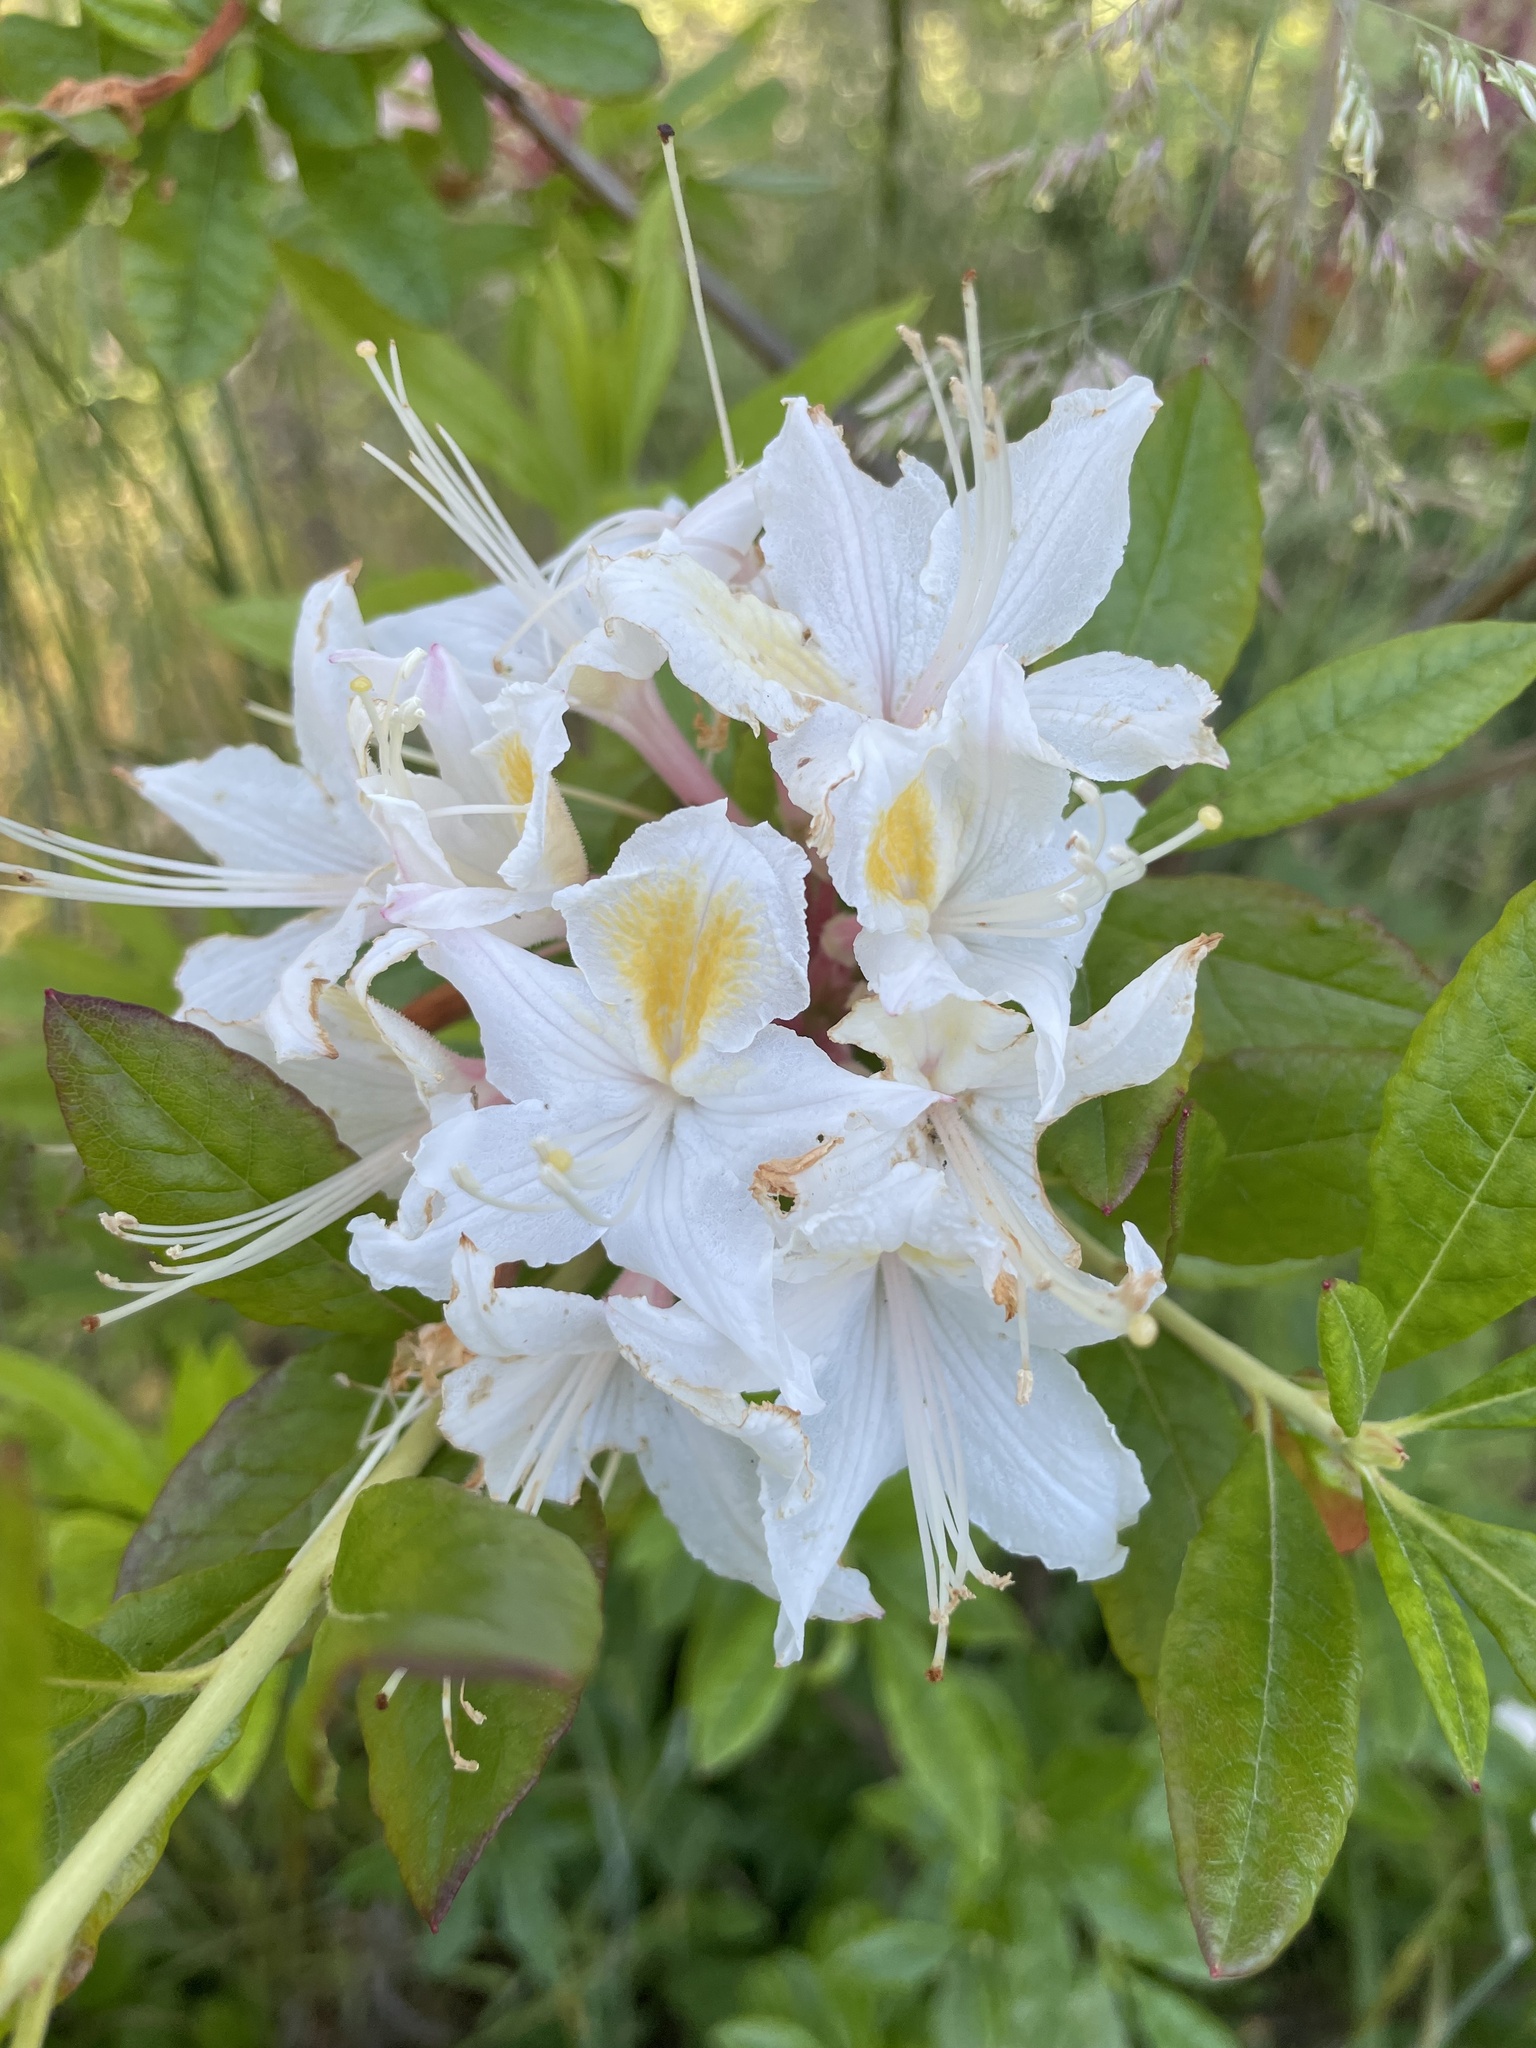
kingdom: Plantae
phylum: Tracheophyta
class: Magnoliopsida
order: Ericales
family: Ericaceae
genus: Rhododendron
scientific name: Rhododendron occidentale
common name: Western azalea
